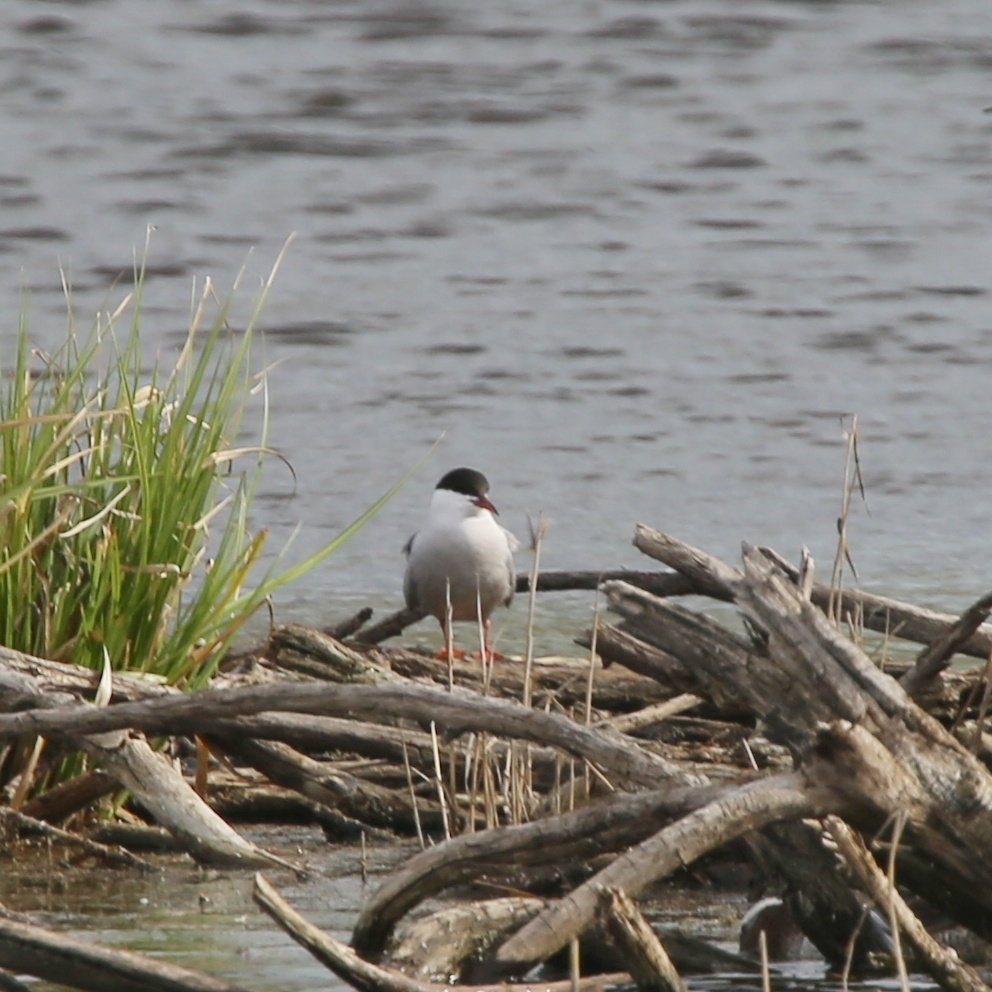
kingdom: Animalia
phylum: Chordata
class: Aves
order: Charadriiformes
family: Laridae
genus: Sterna
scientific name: Sterna hirundo
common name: Common tern
